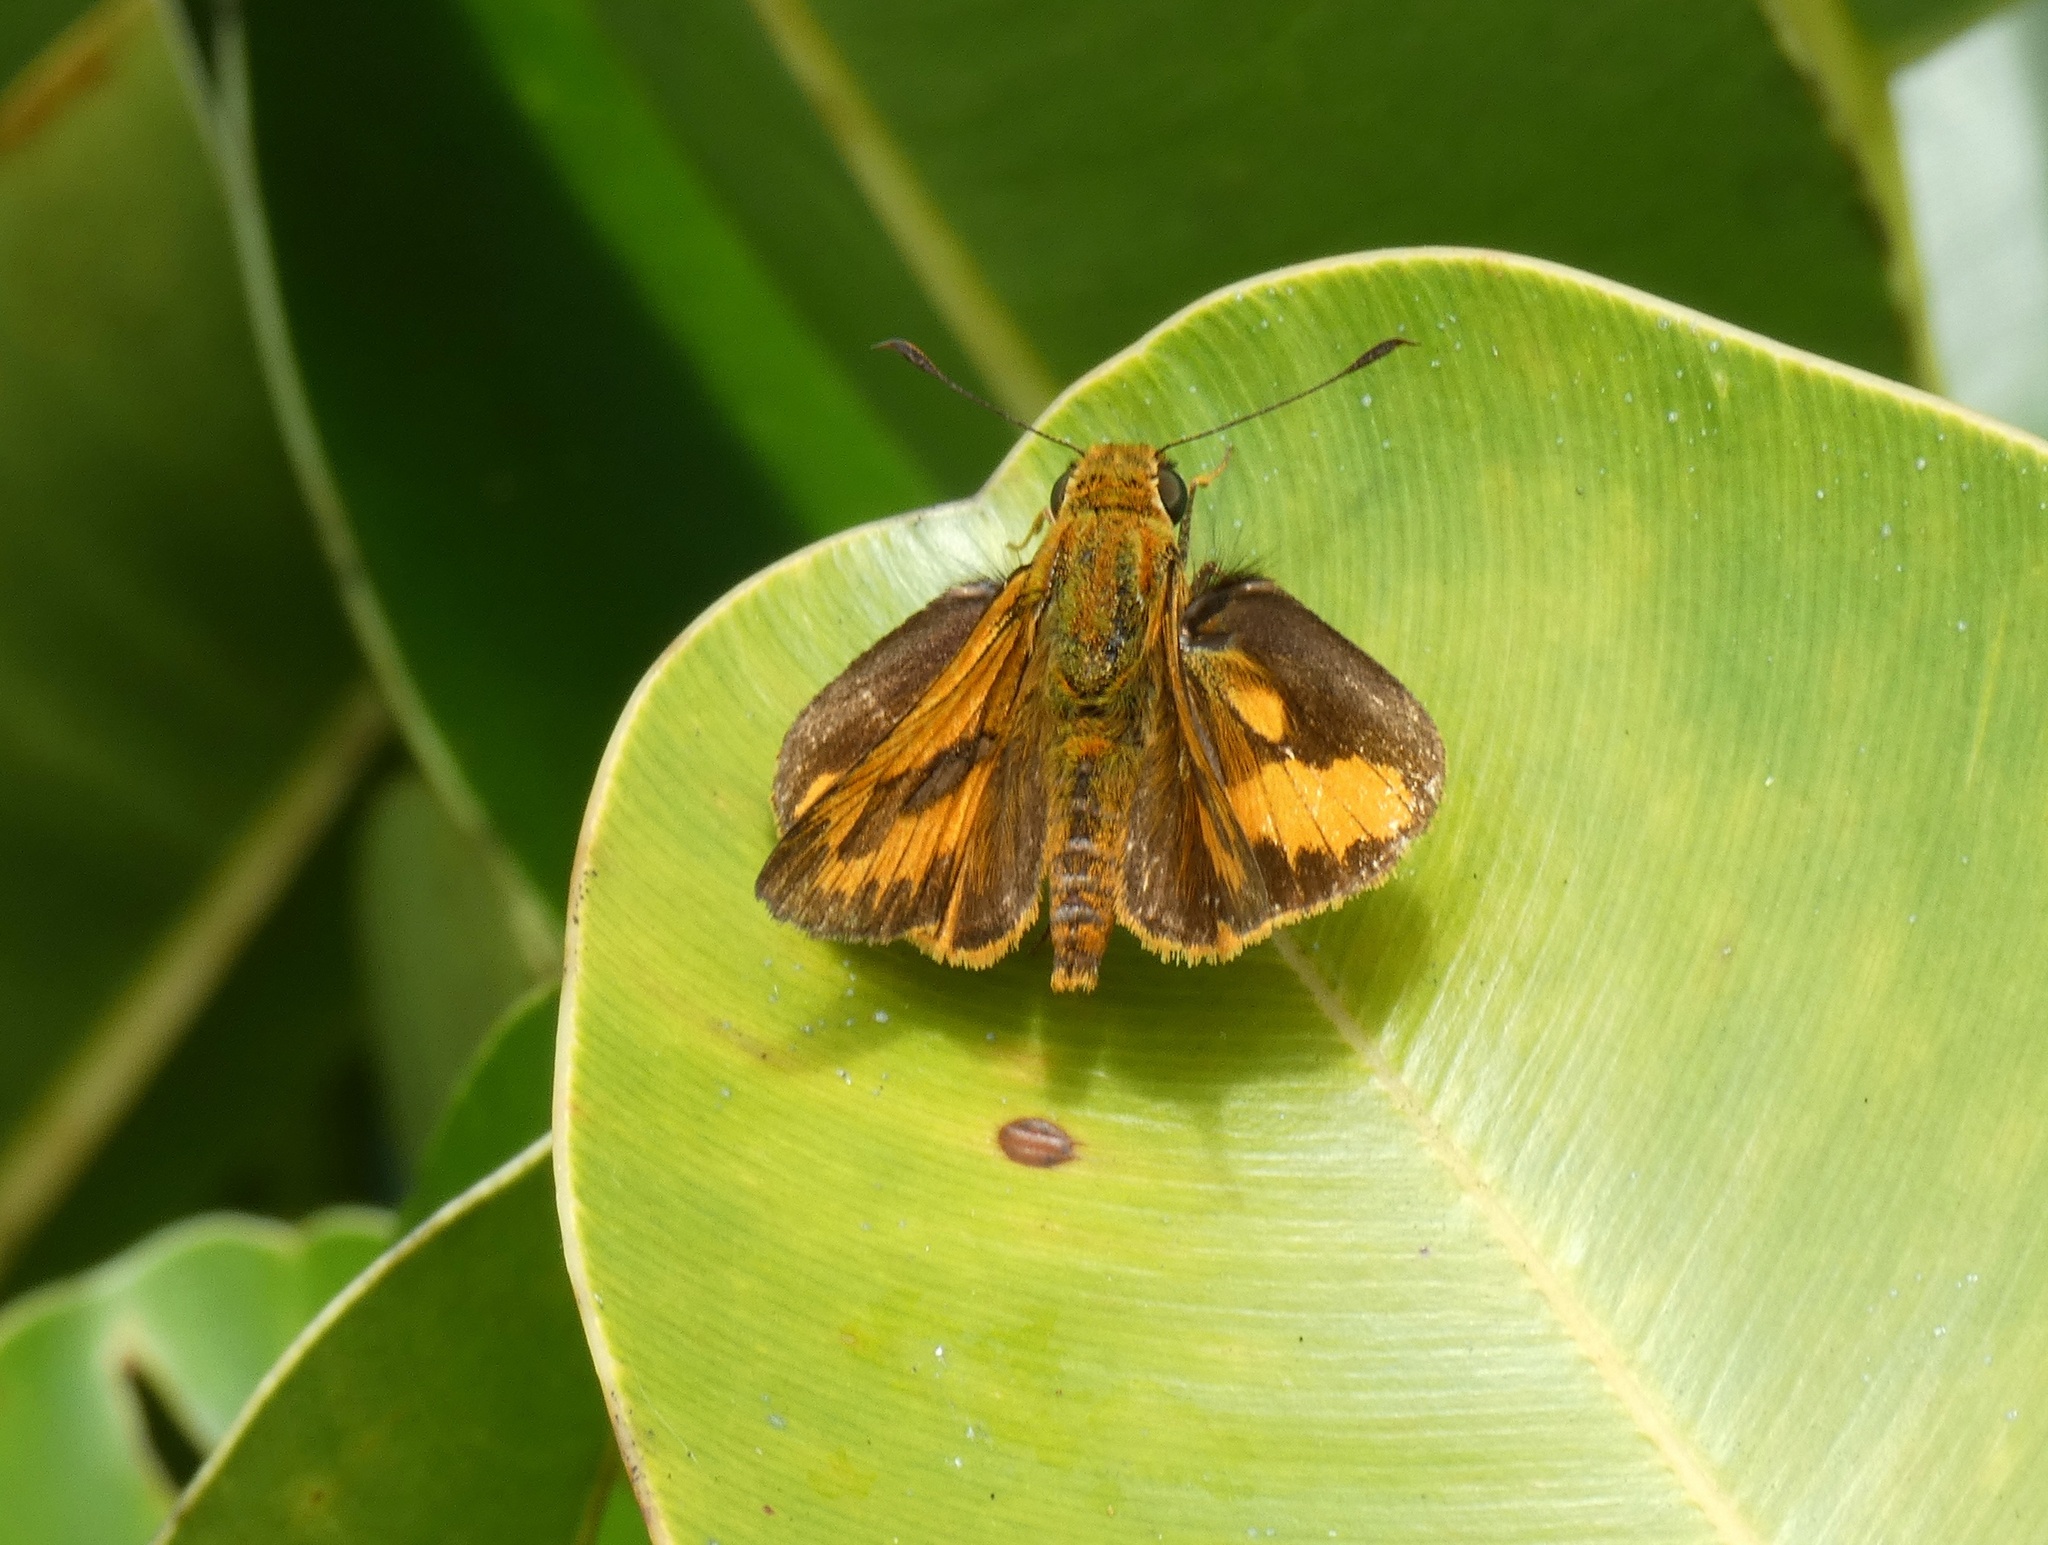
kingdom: Animalia
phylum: Arthropoda
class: Insecta
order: Lepidoptera
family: Hesperiidae
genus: Telicota
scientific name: Telicota augias
